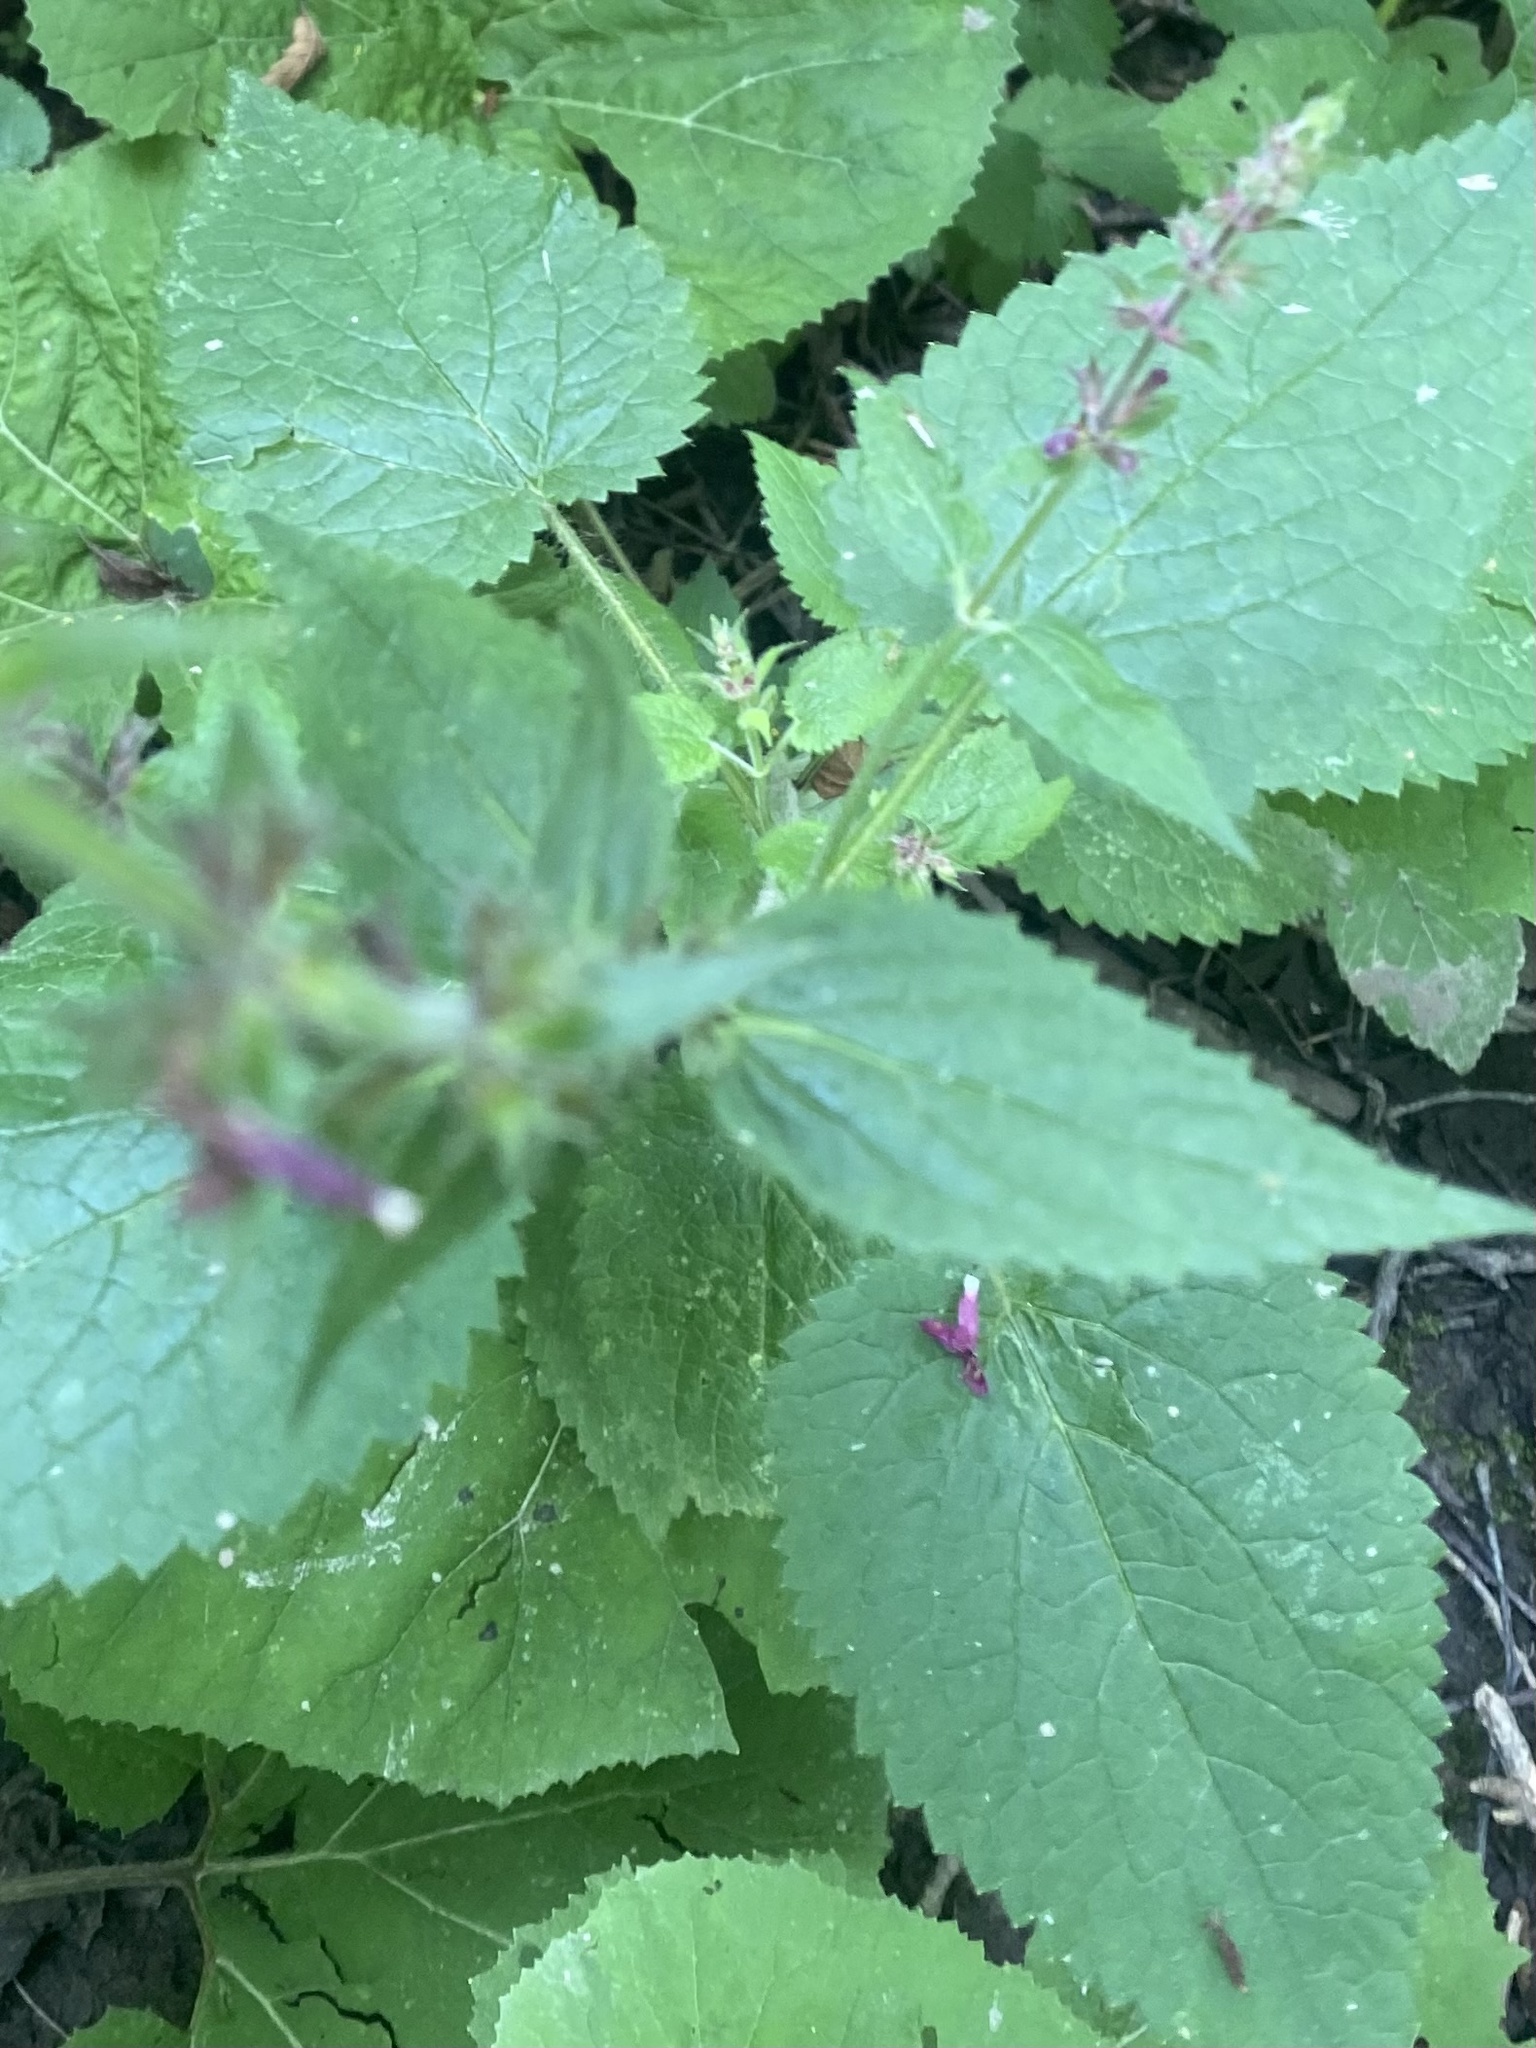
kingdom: Plantae
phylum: Tracheophyta
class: Magnoliopsida
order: Lamiales
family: Lamiaceae
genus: Stachys
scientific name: Stachys sylvatica
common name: Hedge woundwort
